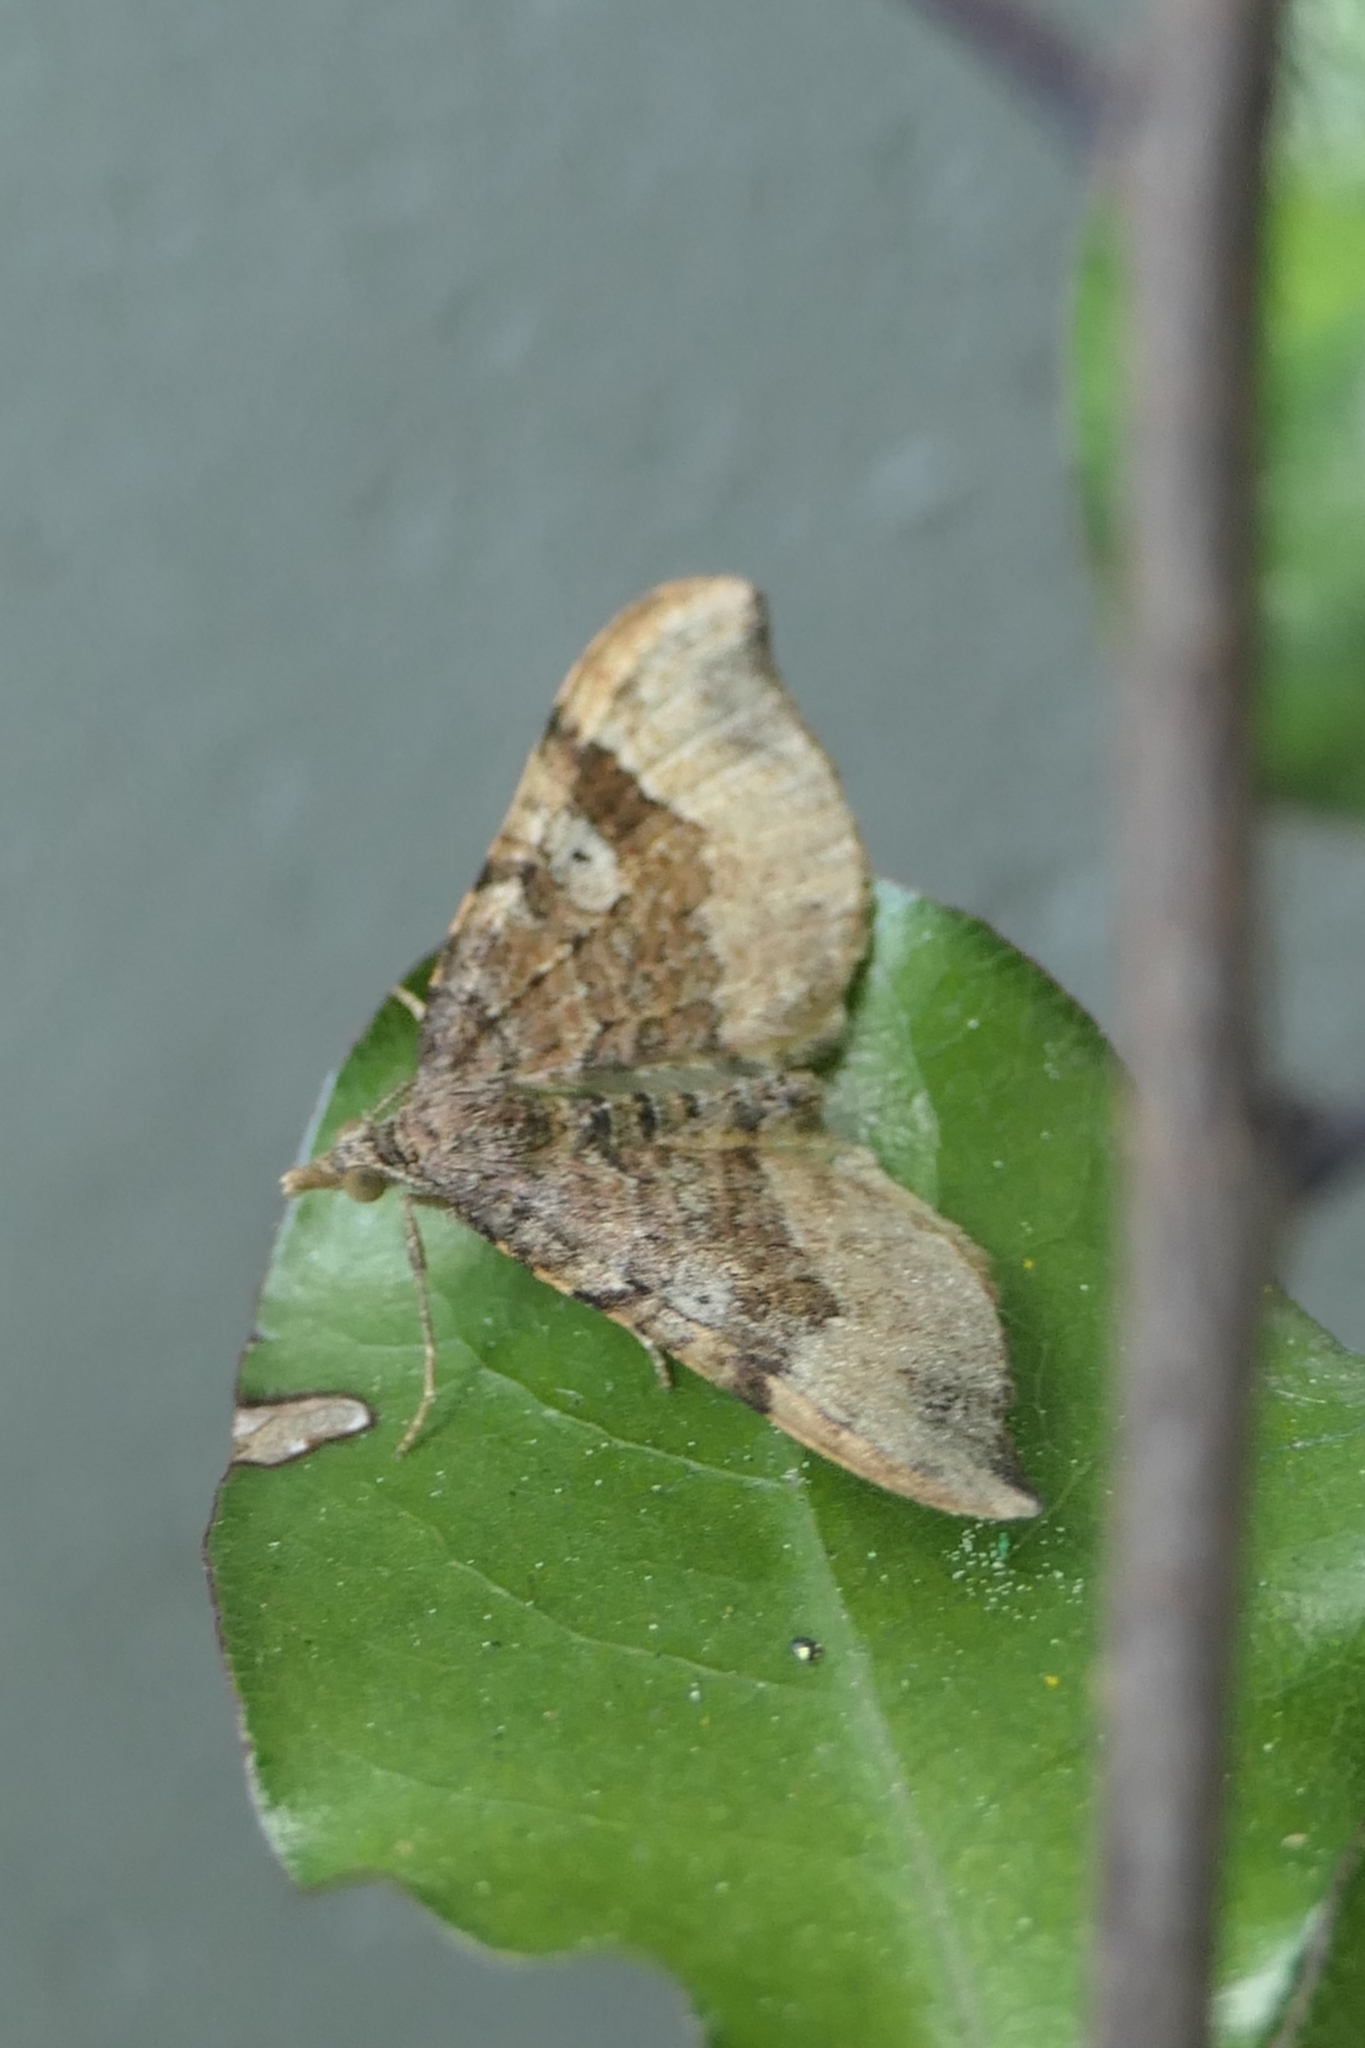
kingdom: Animalia
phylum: Arthropoda
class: Insecta
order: Lepidoptera
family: Geometridae
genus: Homodotis
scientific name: Homodotis megaspilata
